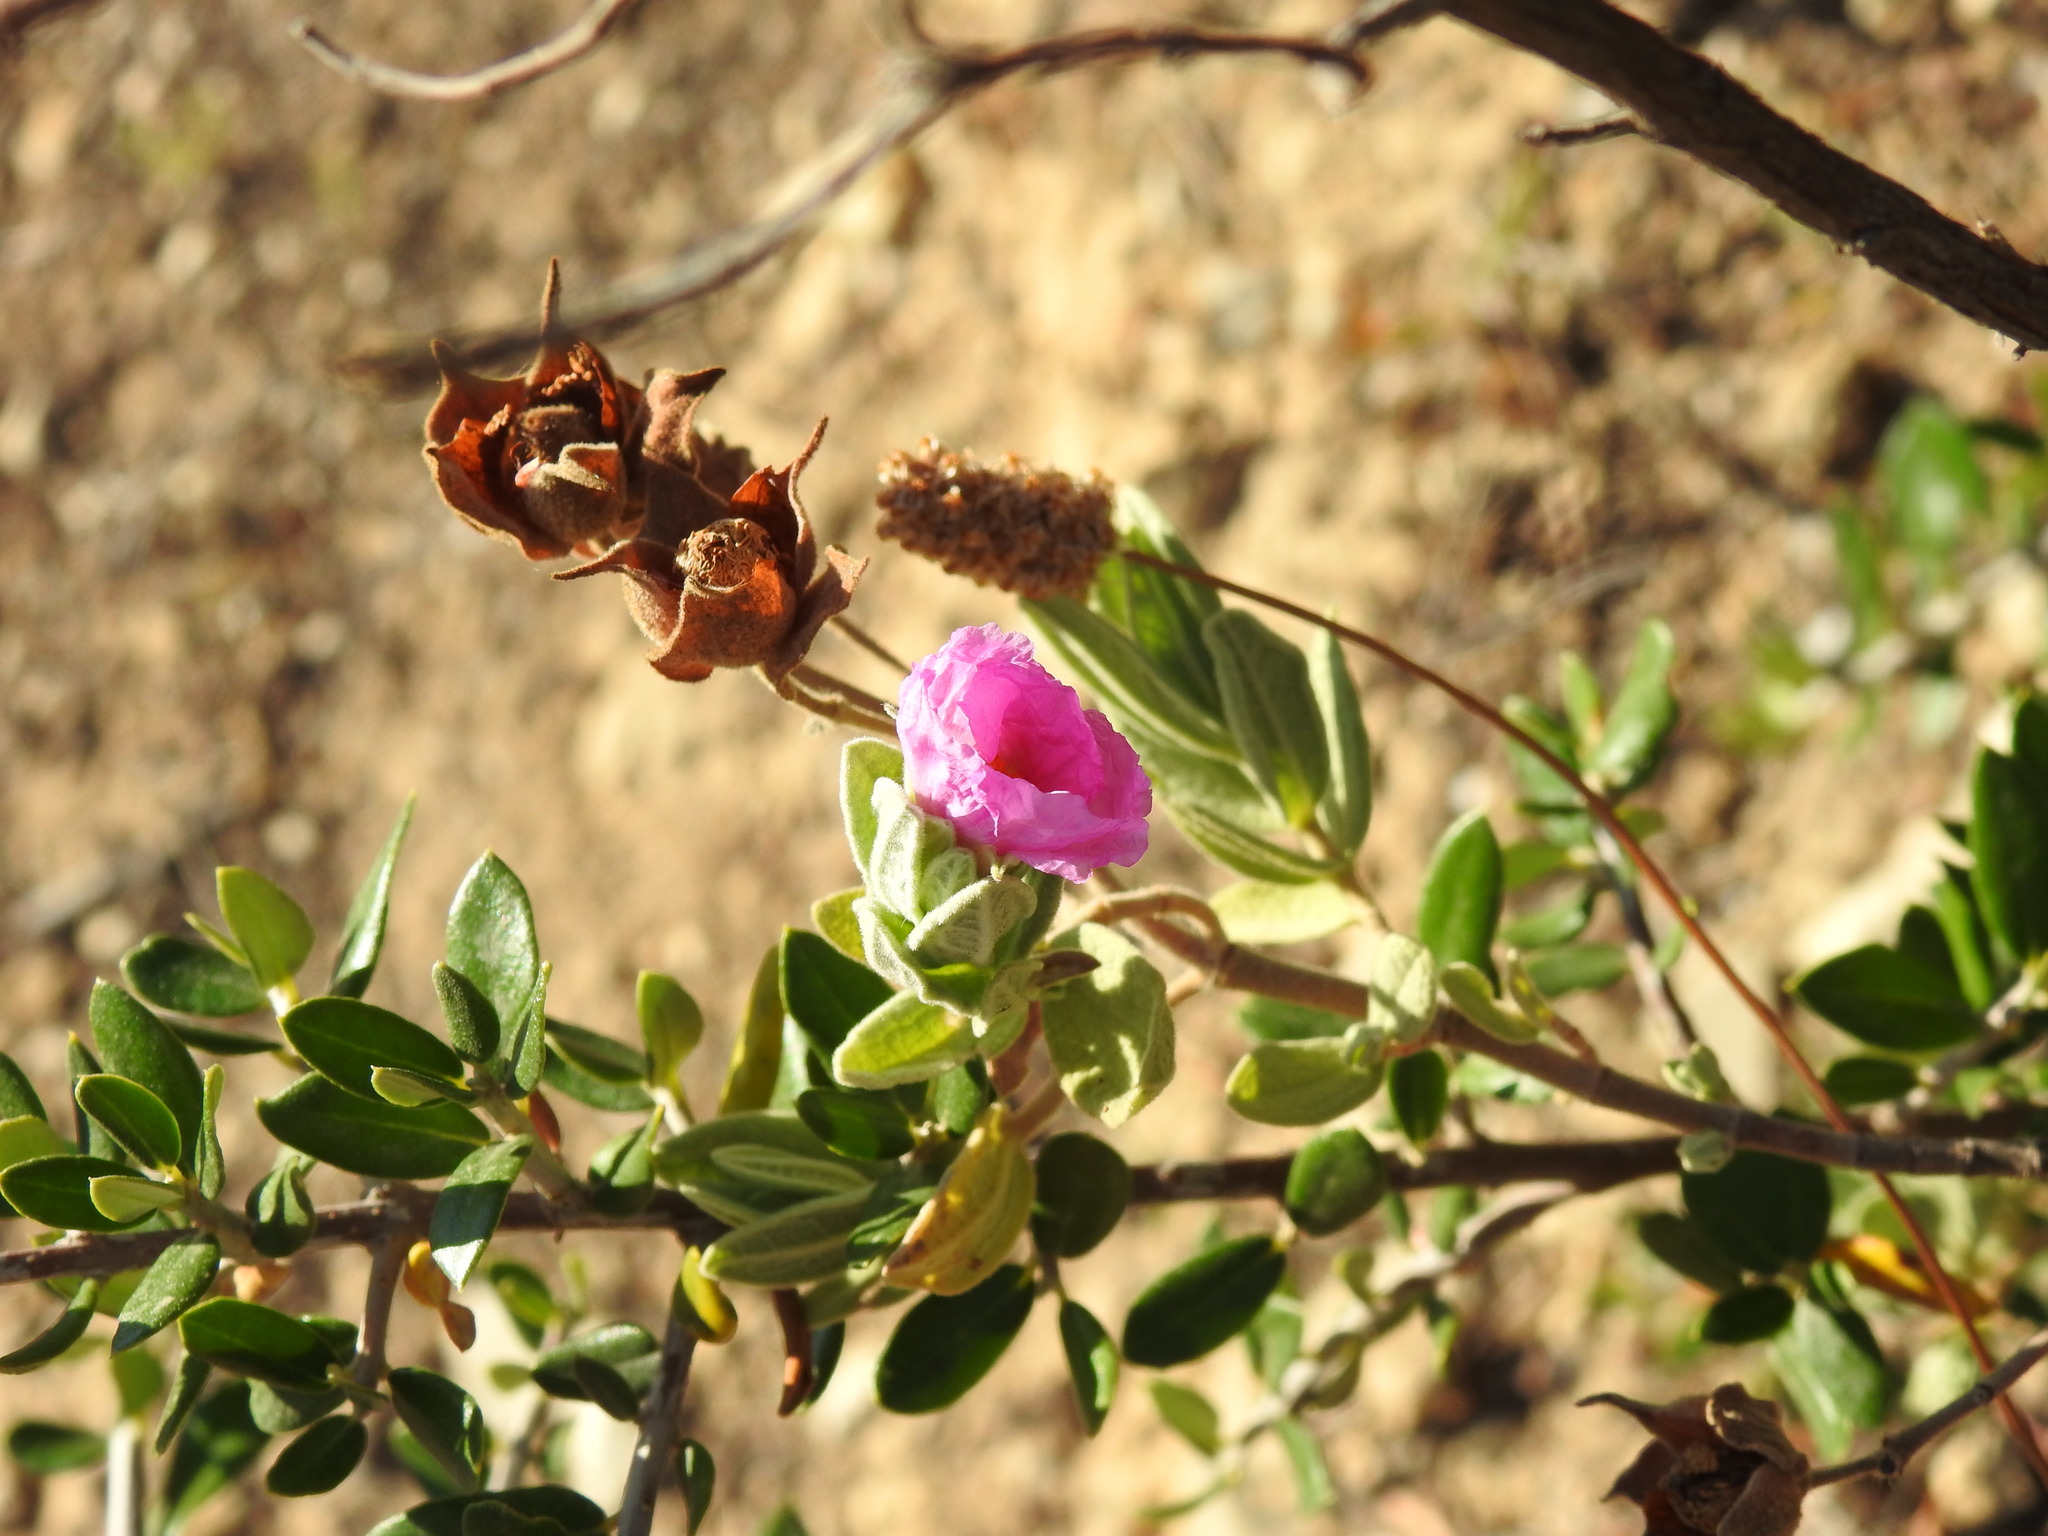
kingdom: Plantae
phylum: Tracheophyta
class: Magnoliopsida
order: Malvales
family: Cistaceae
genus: Cistus
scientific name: Cistus albidus
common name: White-leaf rock-rose
